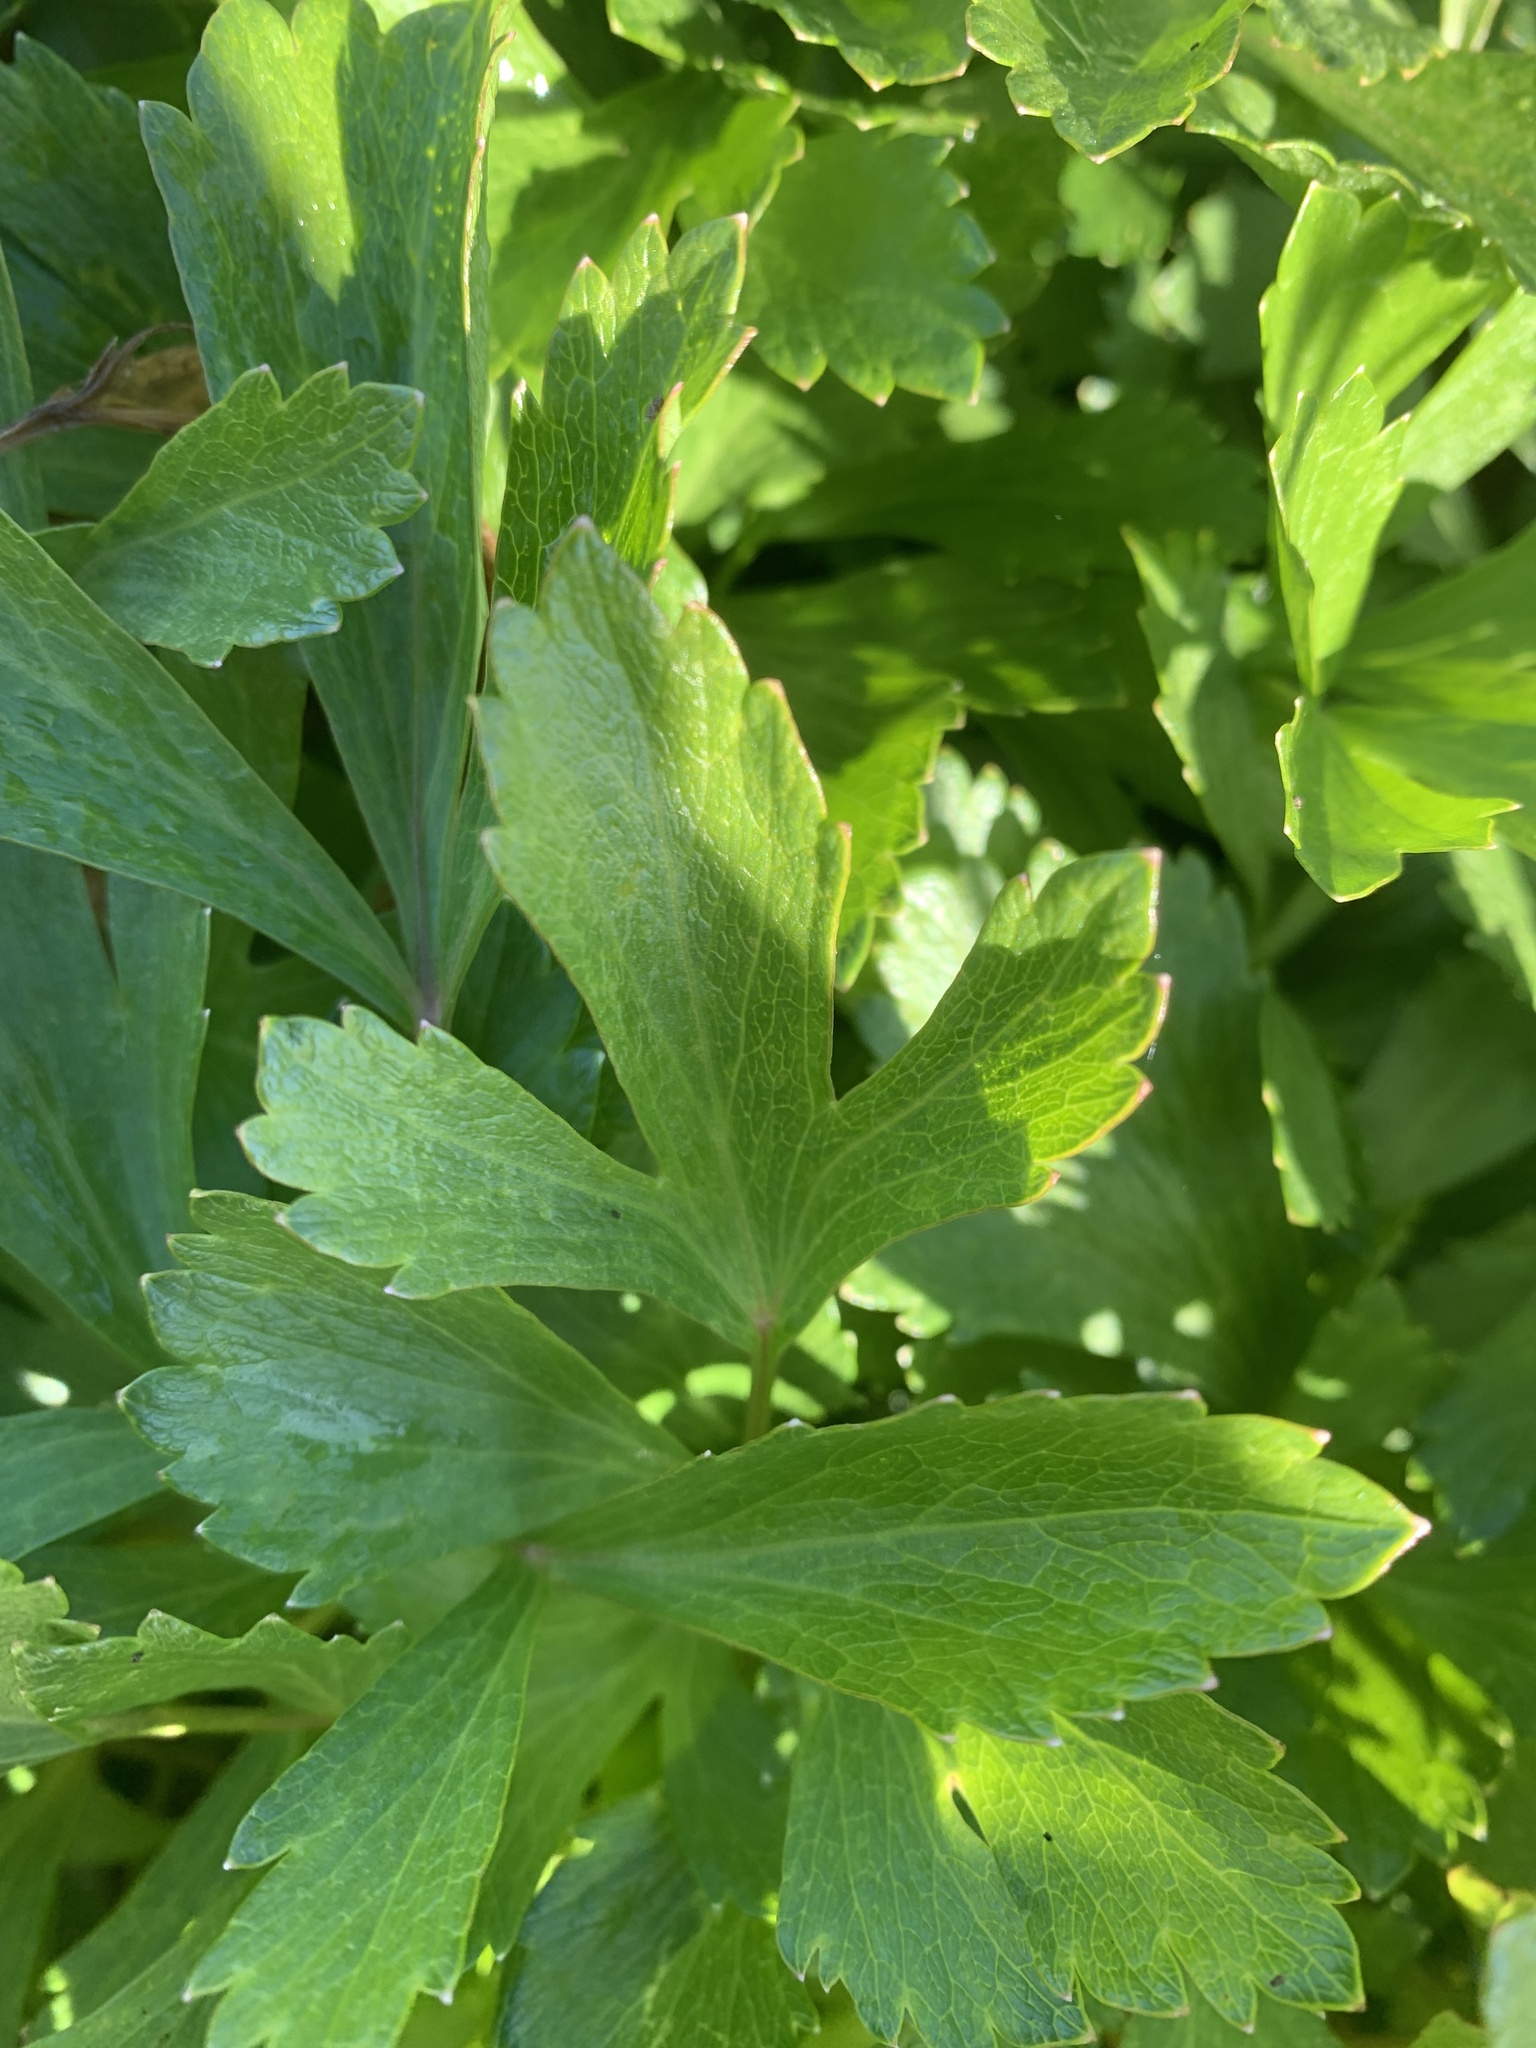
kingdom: Plantae
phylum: Tracheophyta
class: Magnoliopsida
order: Apiales
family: Apiaceae
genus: Ligusticum
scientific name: Ligusticum scothicum
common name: Beach lovage
